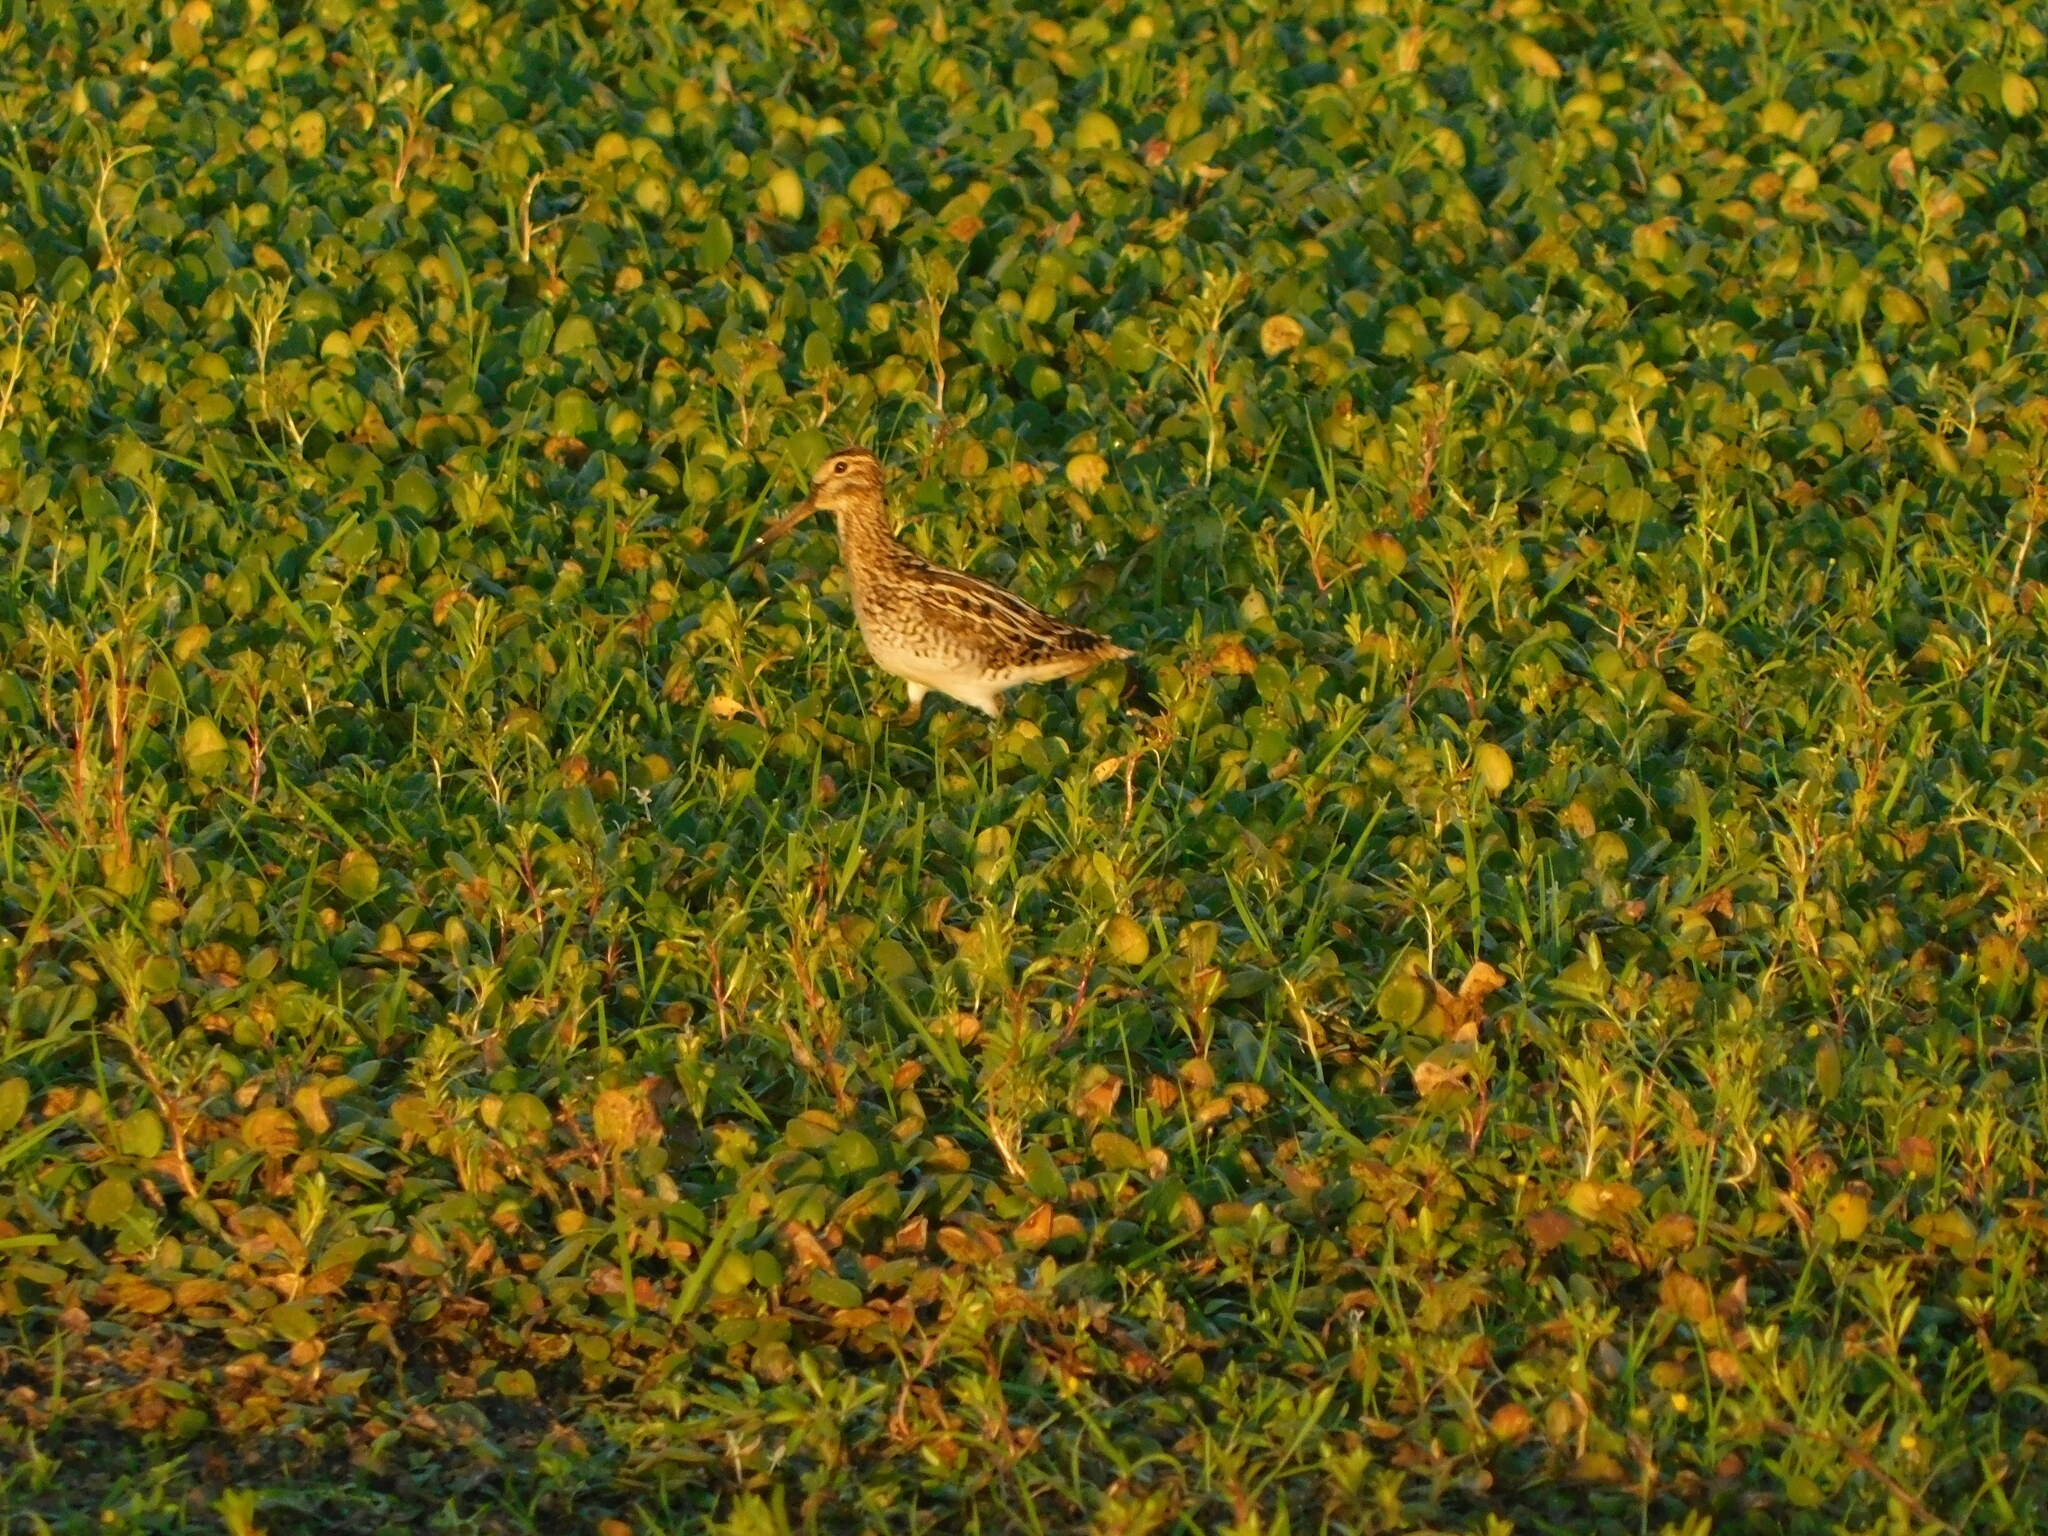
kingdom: Animalia
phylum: Chordata
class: Aves
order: Charadriiformes
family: Scolopacidae
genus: Gallinago
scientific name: Gallinago paraguaiae
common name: South american snipe
